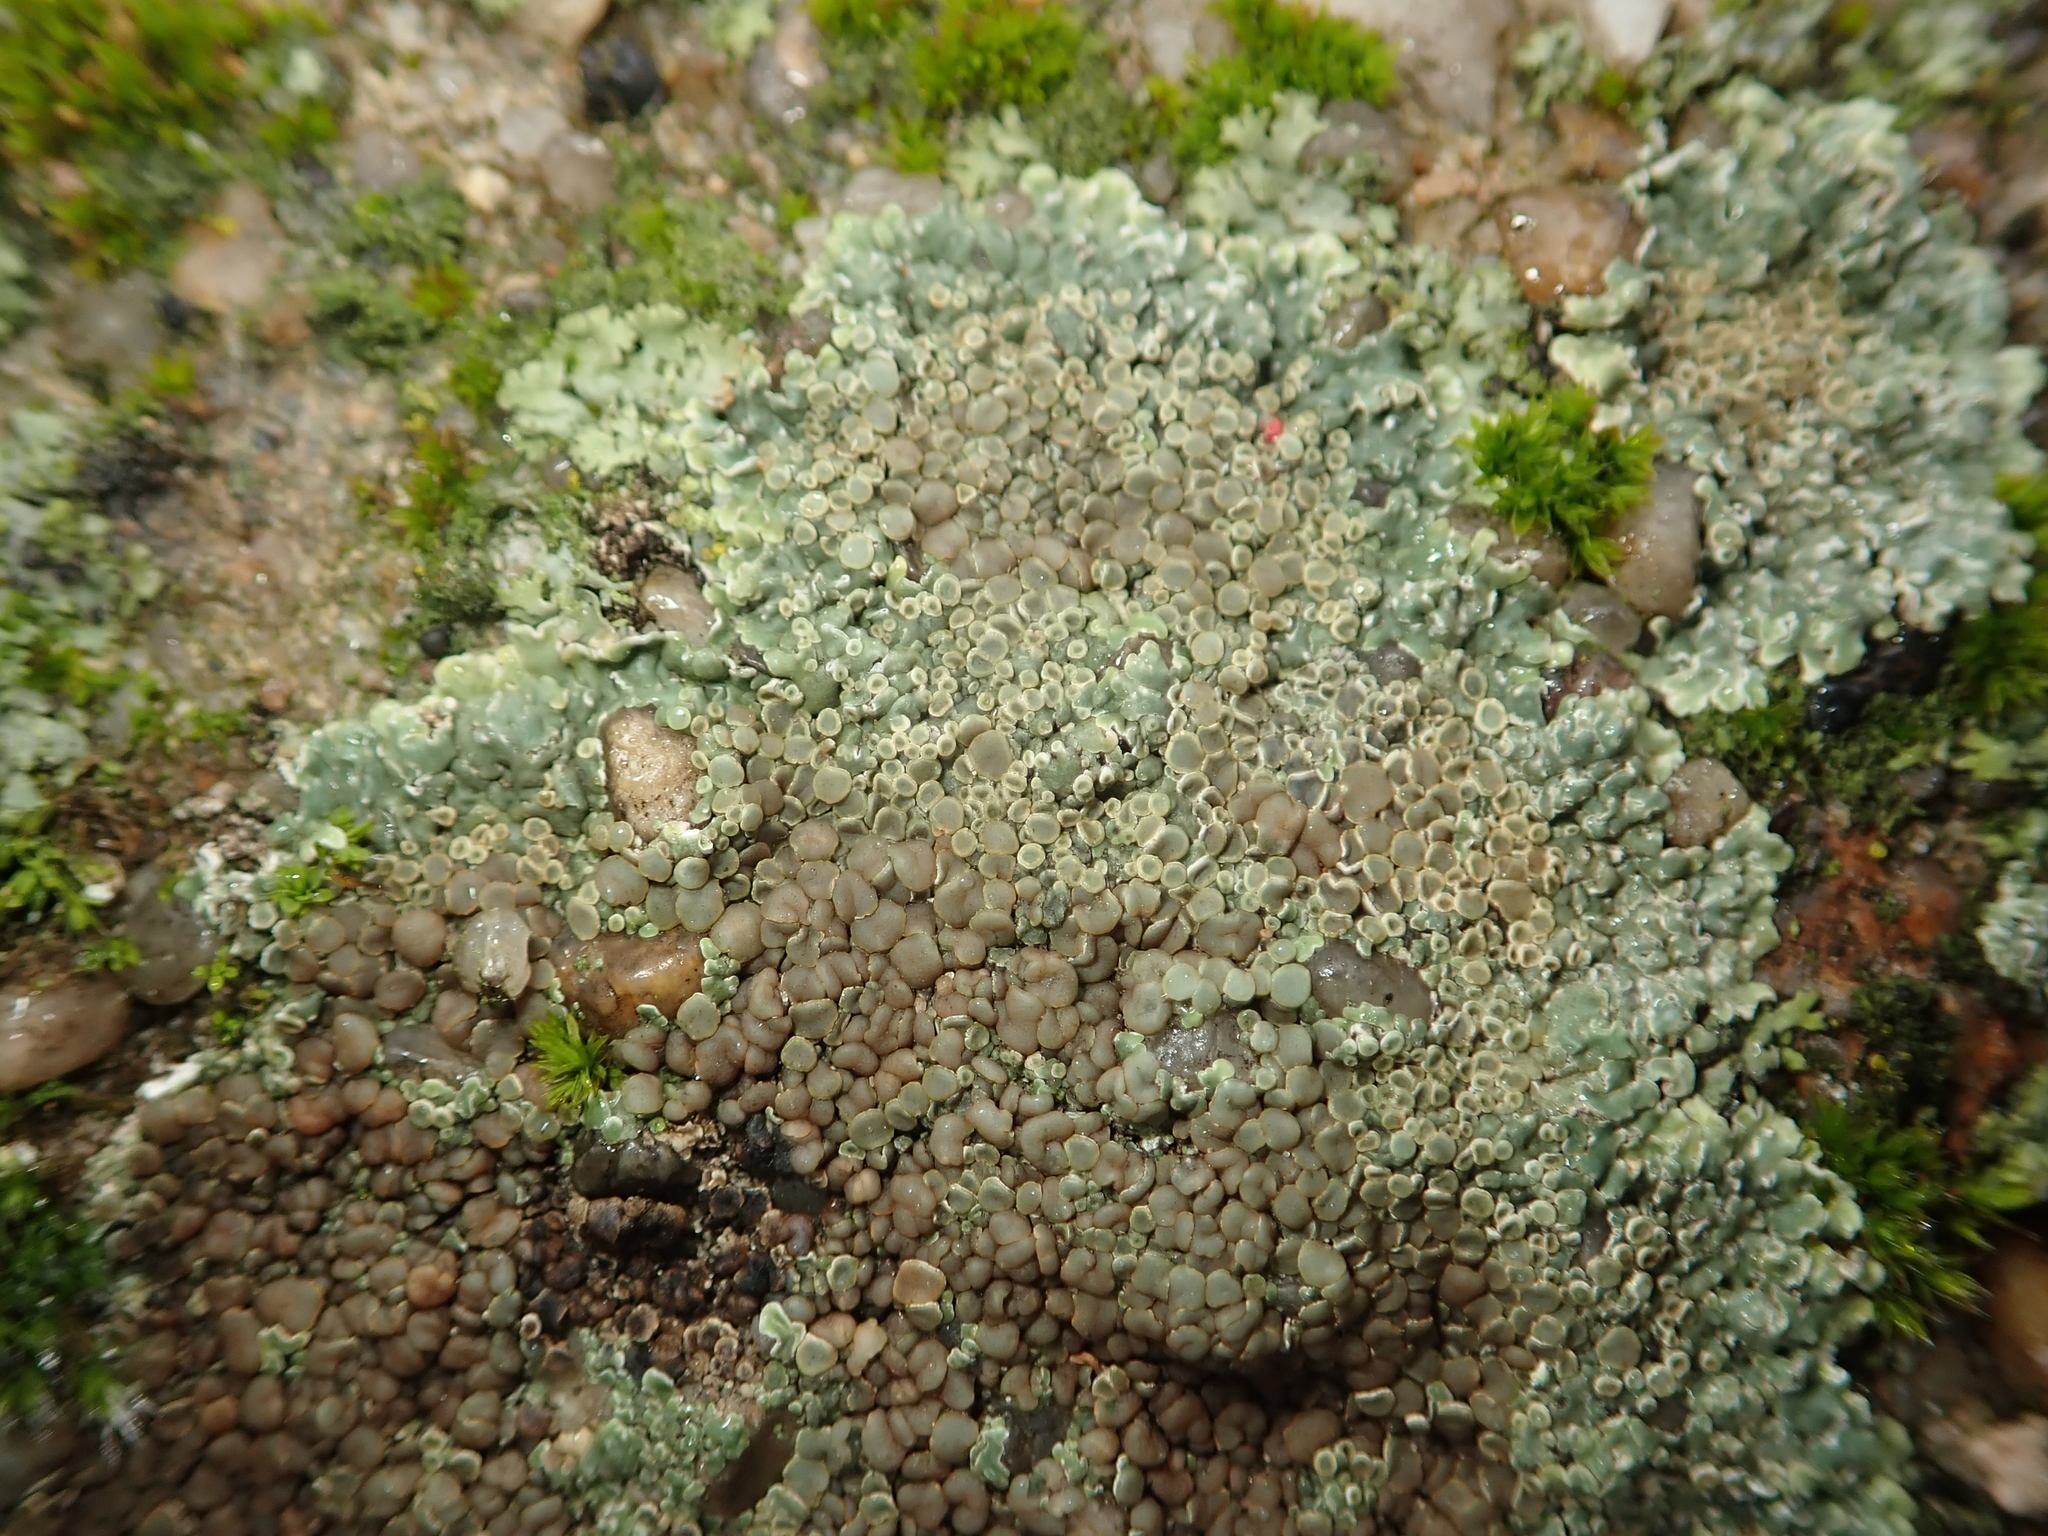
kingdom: Fungi
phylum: Ascomycota
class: Lecanoromycetes
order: Lecanorales
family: Lecanoraceae
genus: Protoparmeliopsis
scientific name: Protoparmeliopsis muralis
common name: Stonewall rim lichen
